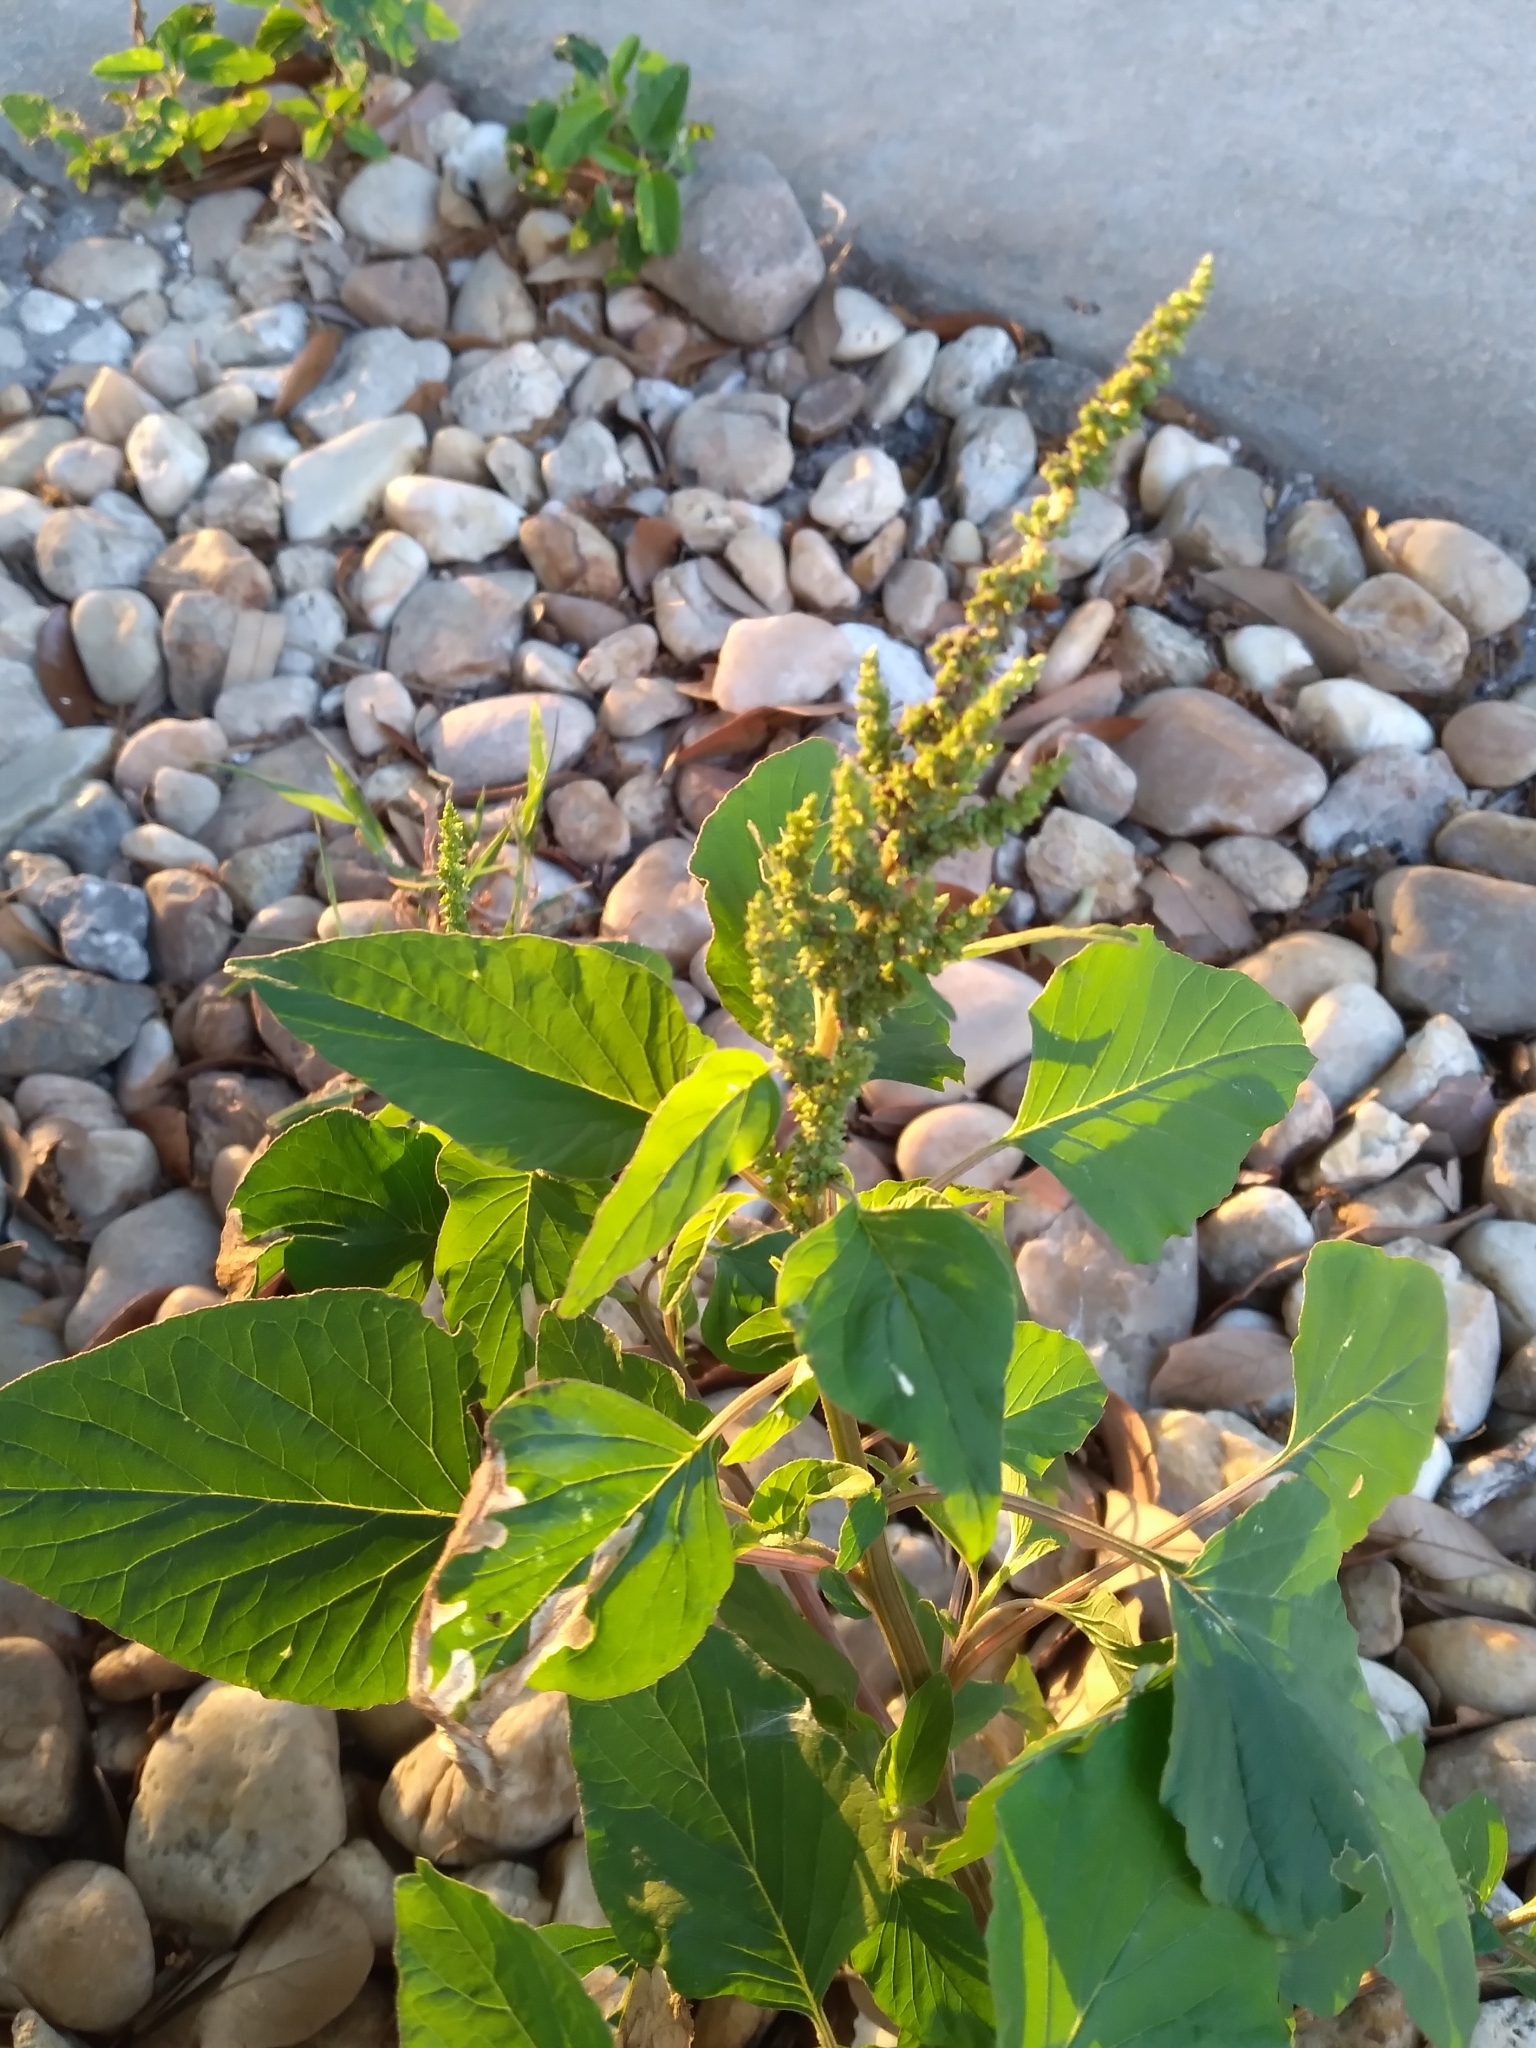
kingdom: Plantae
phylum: Tracheophyta
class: Magnoliopsida
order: Caryophyllales
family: Amaranthaceae
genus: Amaranthus
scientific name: Amaranthus viridis
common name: Slender amaranth
